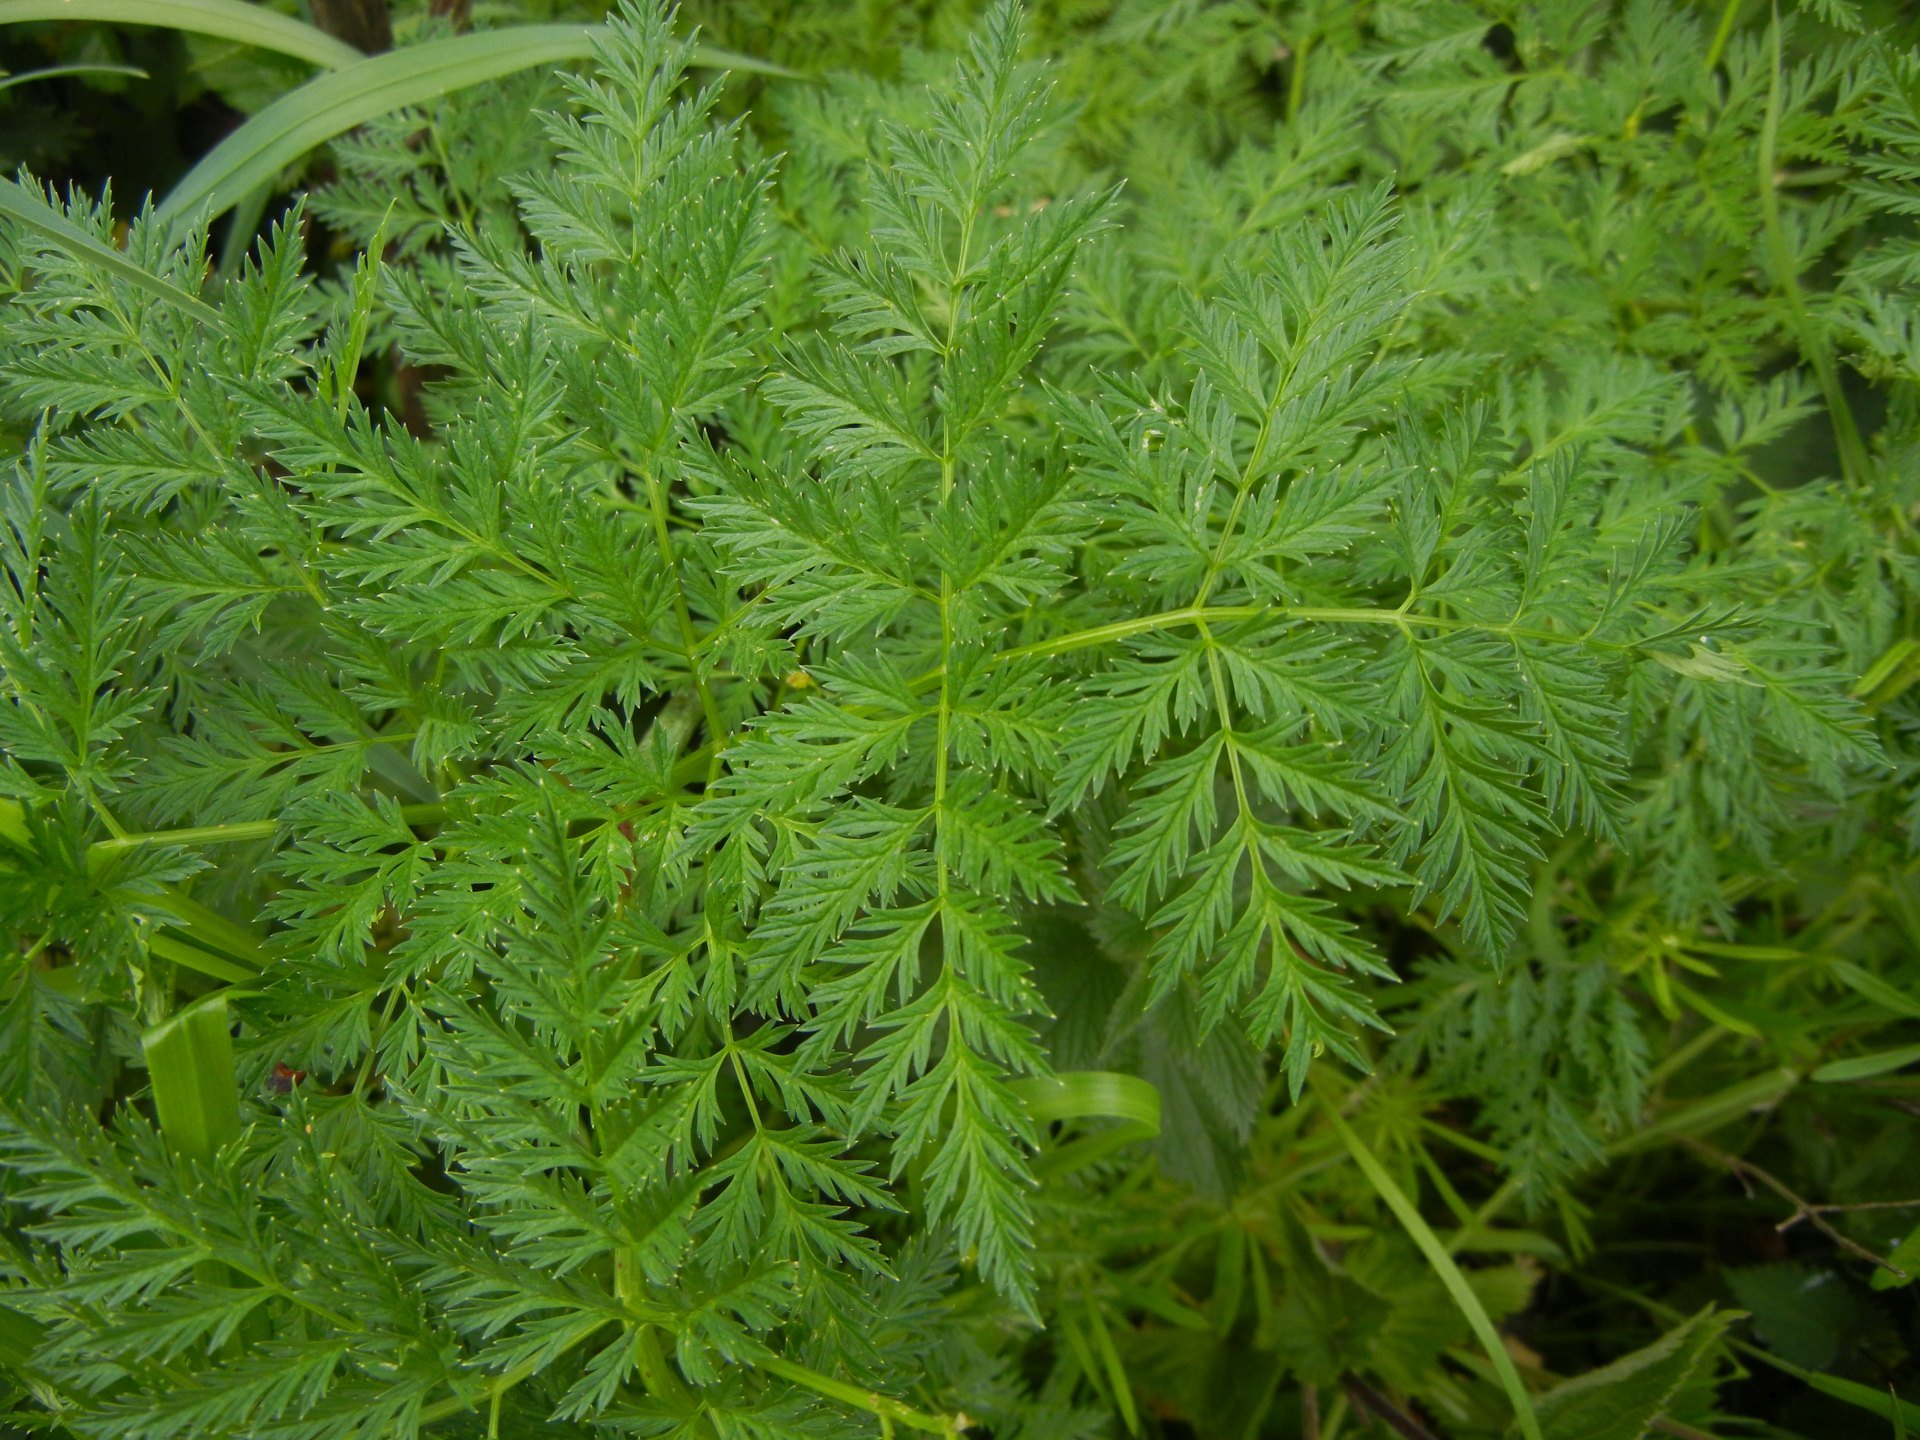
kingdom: Plantae
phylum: Tracheophyta
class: Magnoliopsida
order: Apiales
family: Apiaceae
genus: Conium
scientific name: Conium maculatum
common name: Hemlock
